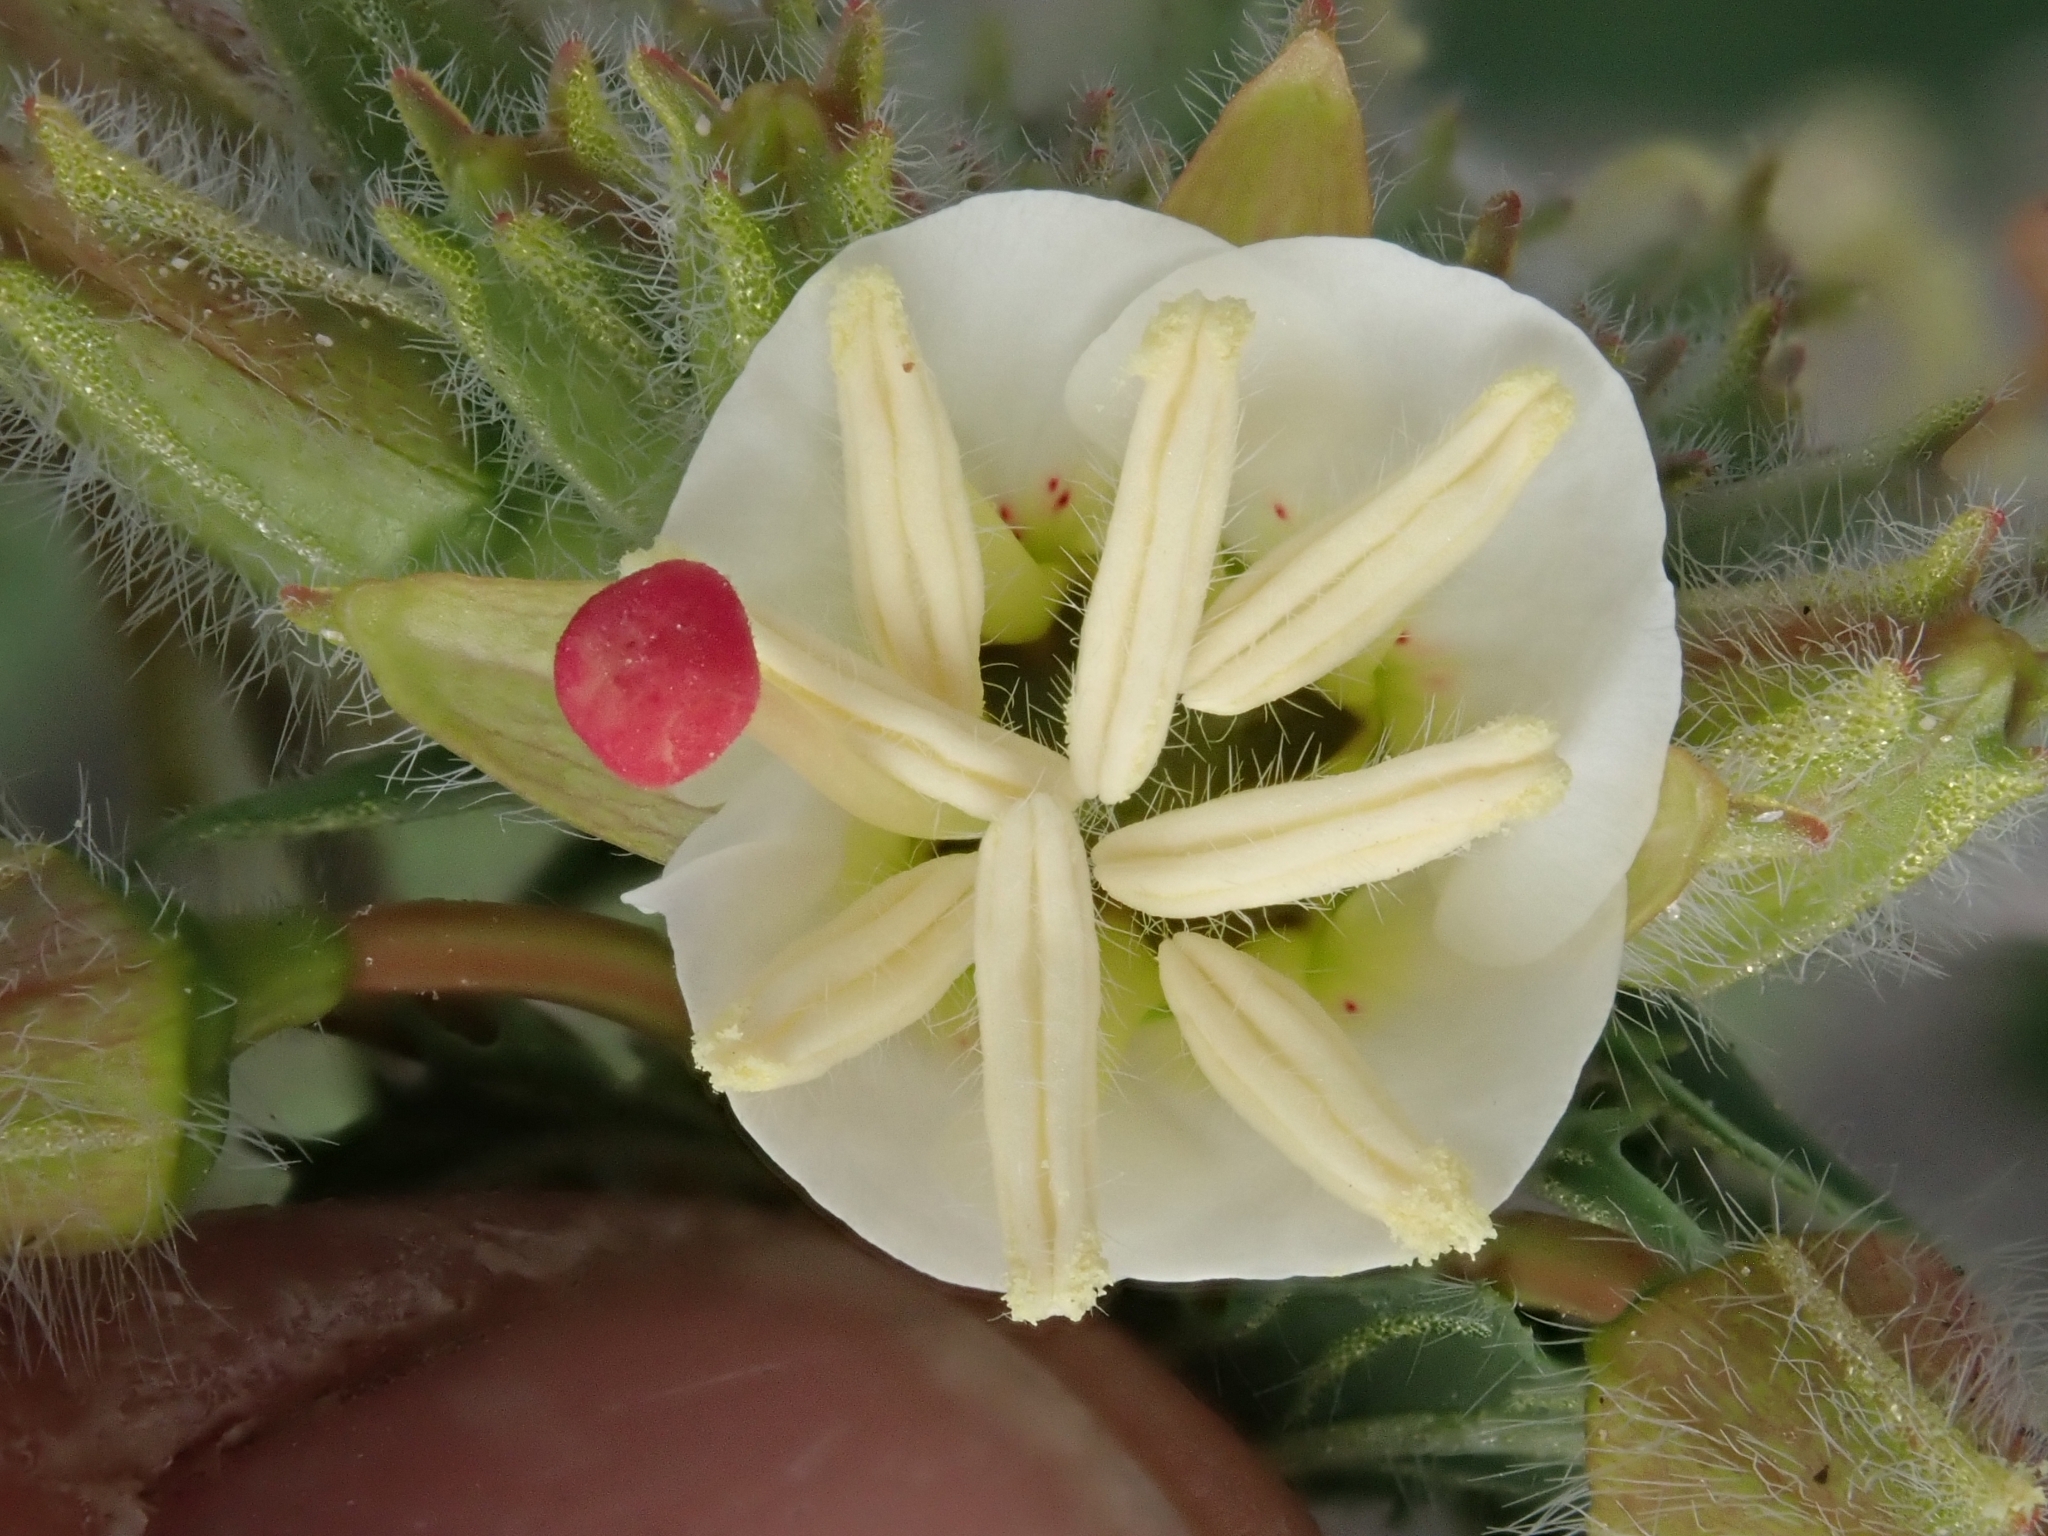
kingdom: Plantae
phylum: Tracheophyta
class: Magnoliopsida
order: Myrtales
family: Onagraceae
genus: Chylismia
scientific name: Chylismia claviformis
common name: Browneyes
